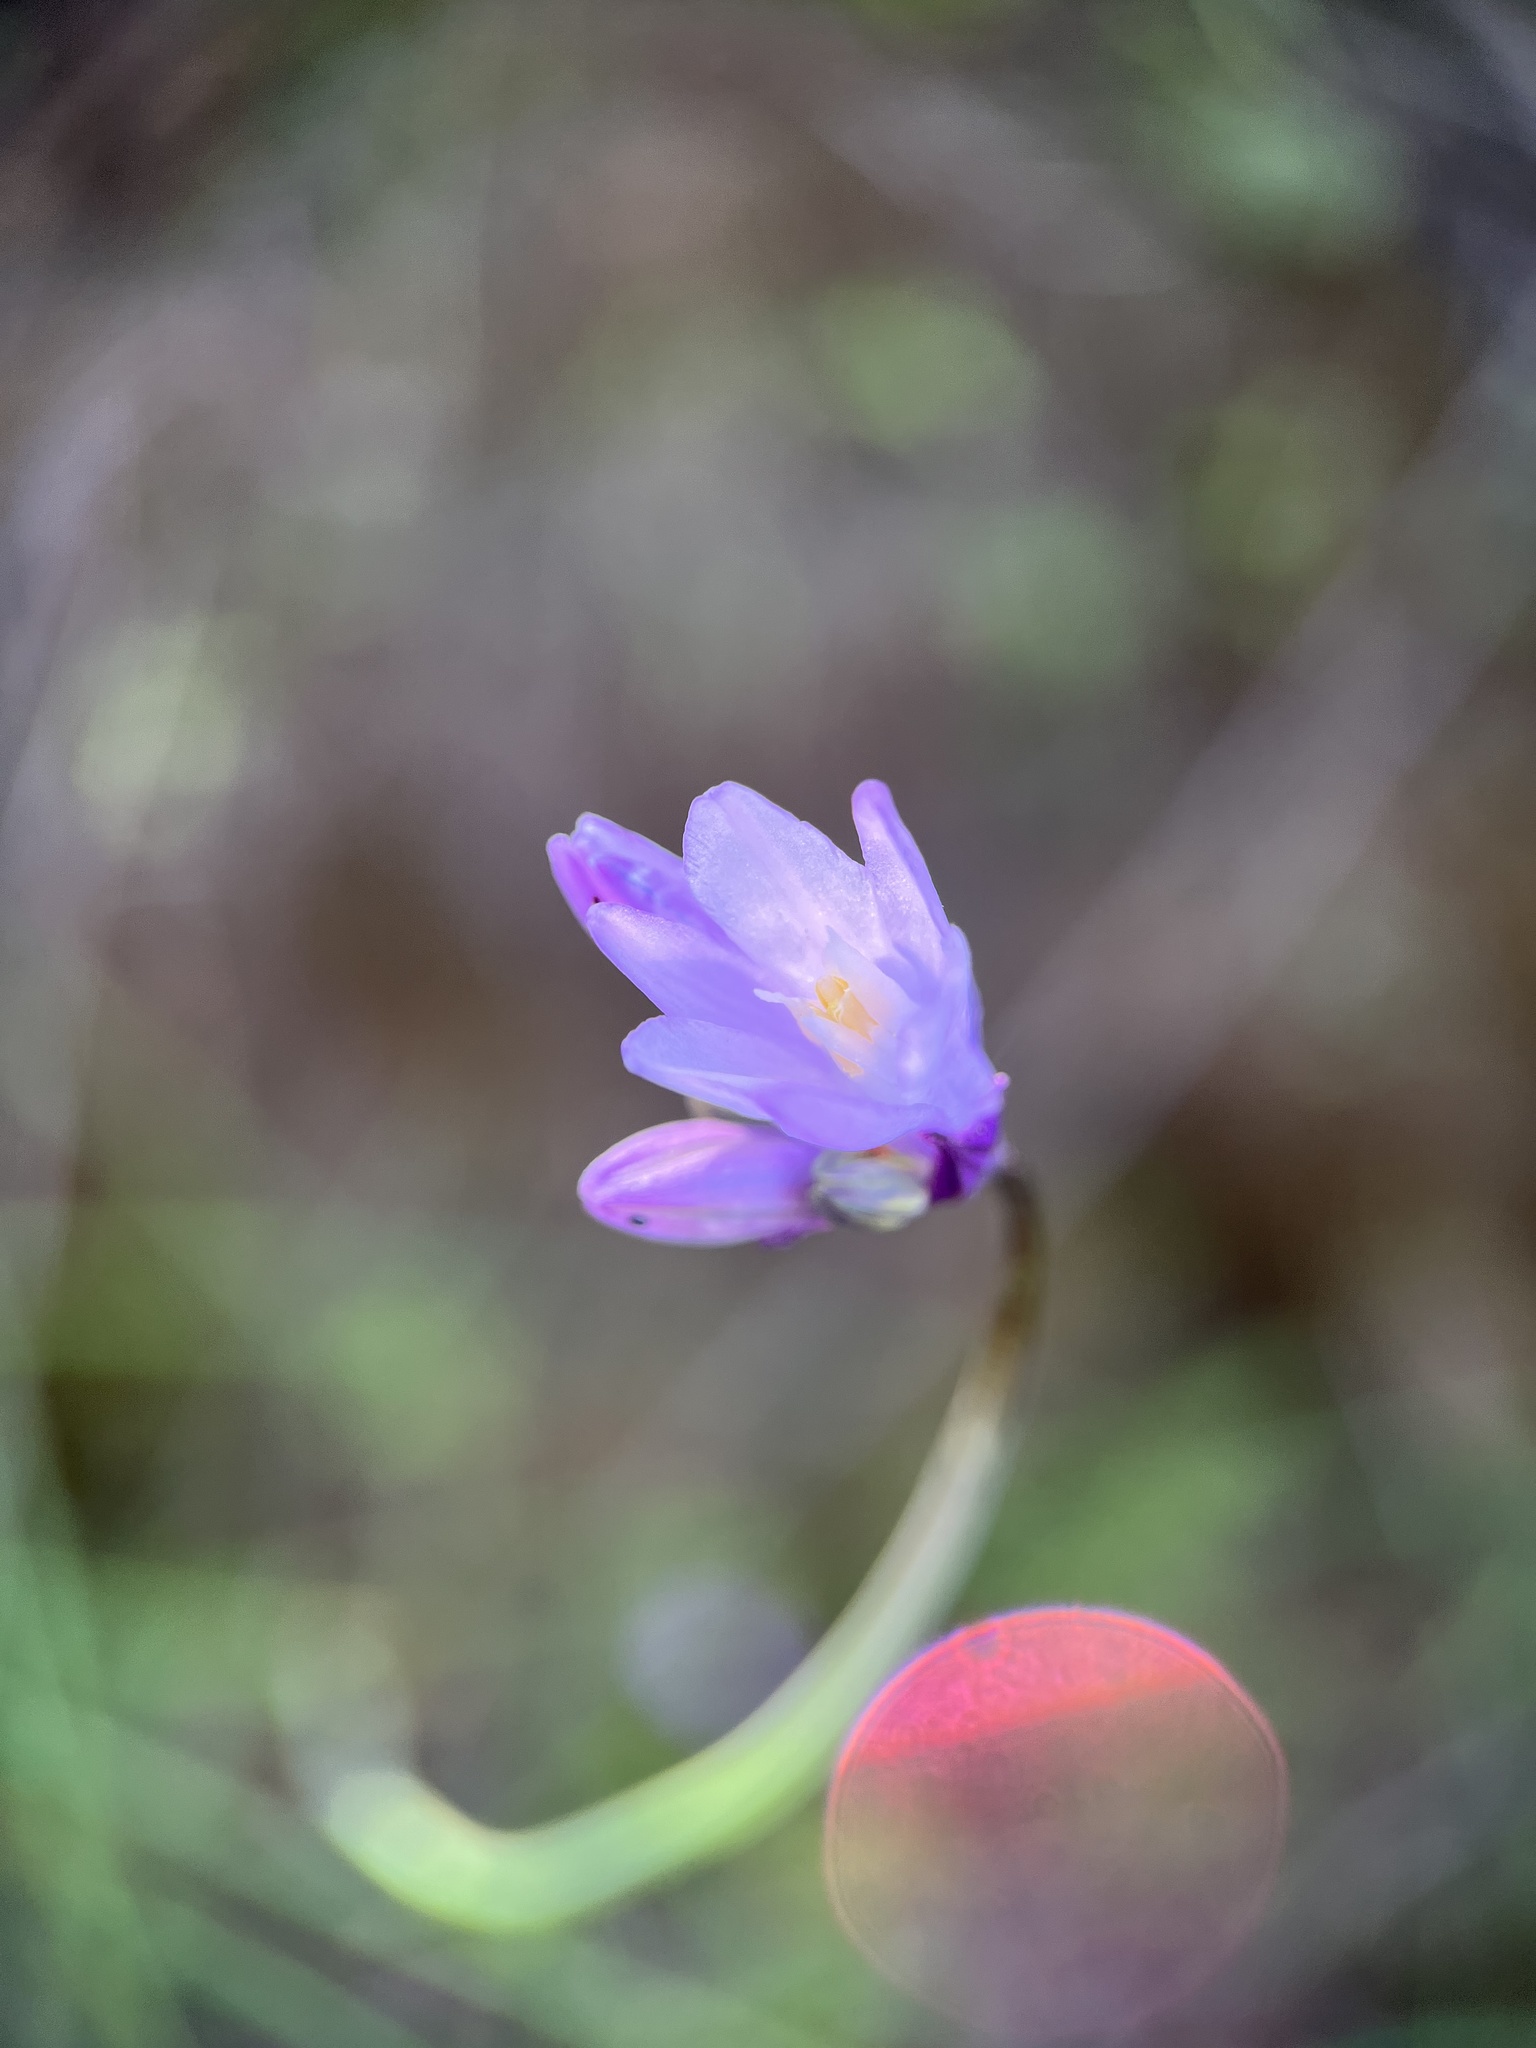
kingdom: Plantae
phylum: Tracheophyta
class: Liliopsida
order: Asparagales
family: Asparagaceae
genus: Dipterostemon
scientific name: Dipterostemon capitatus
